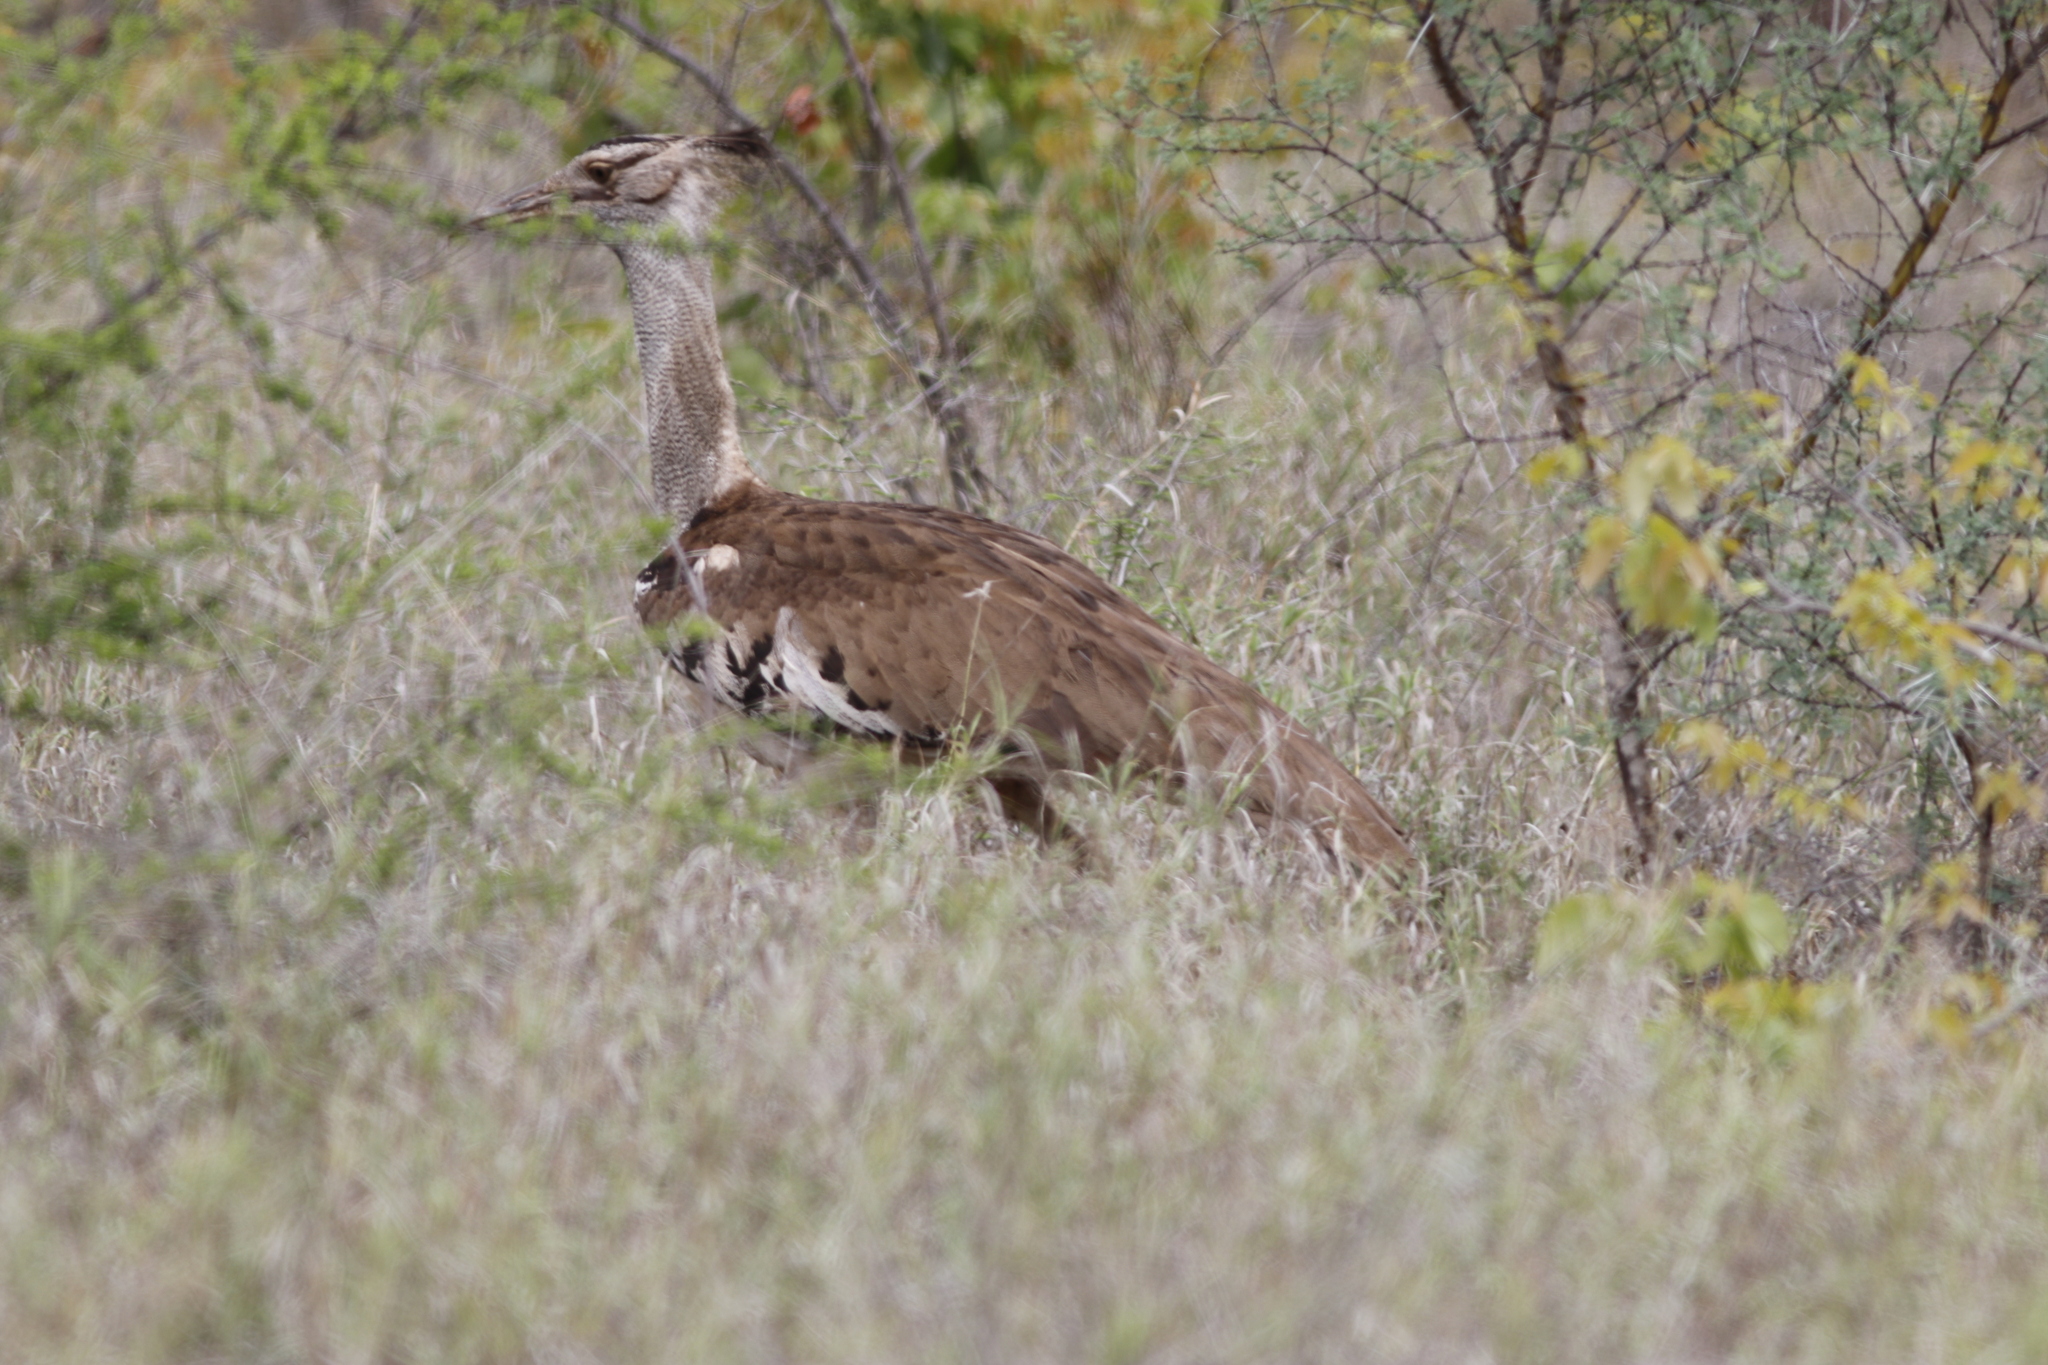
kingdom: Animalia
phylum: Chordata
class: Aves
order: Otidiformes
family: Otididae
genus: Ardeotis
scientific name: Ardeotis kori
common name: Kori bustard
